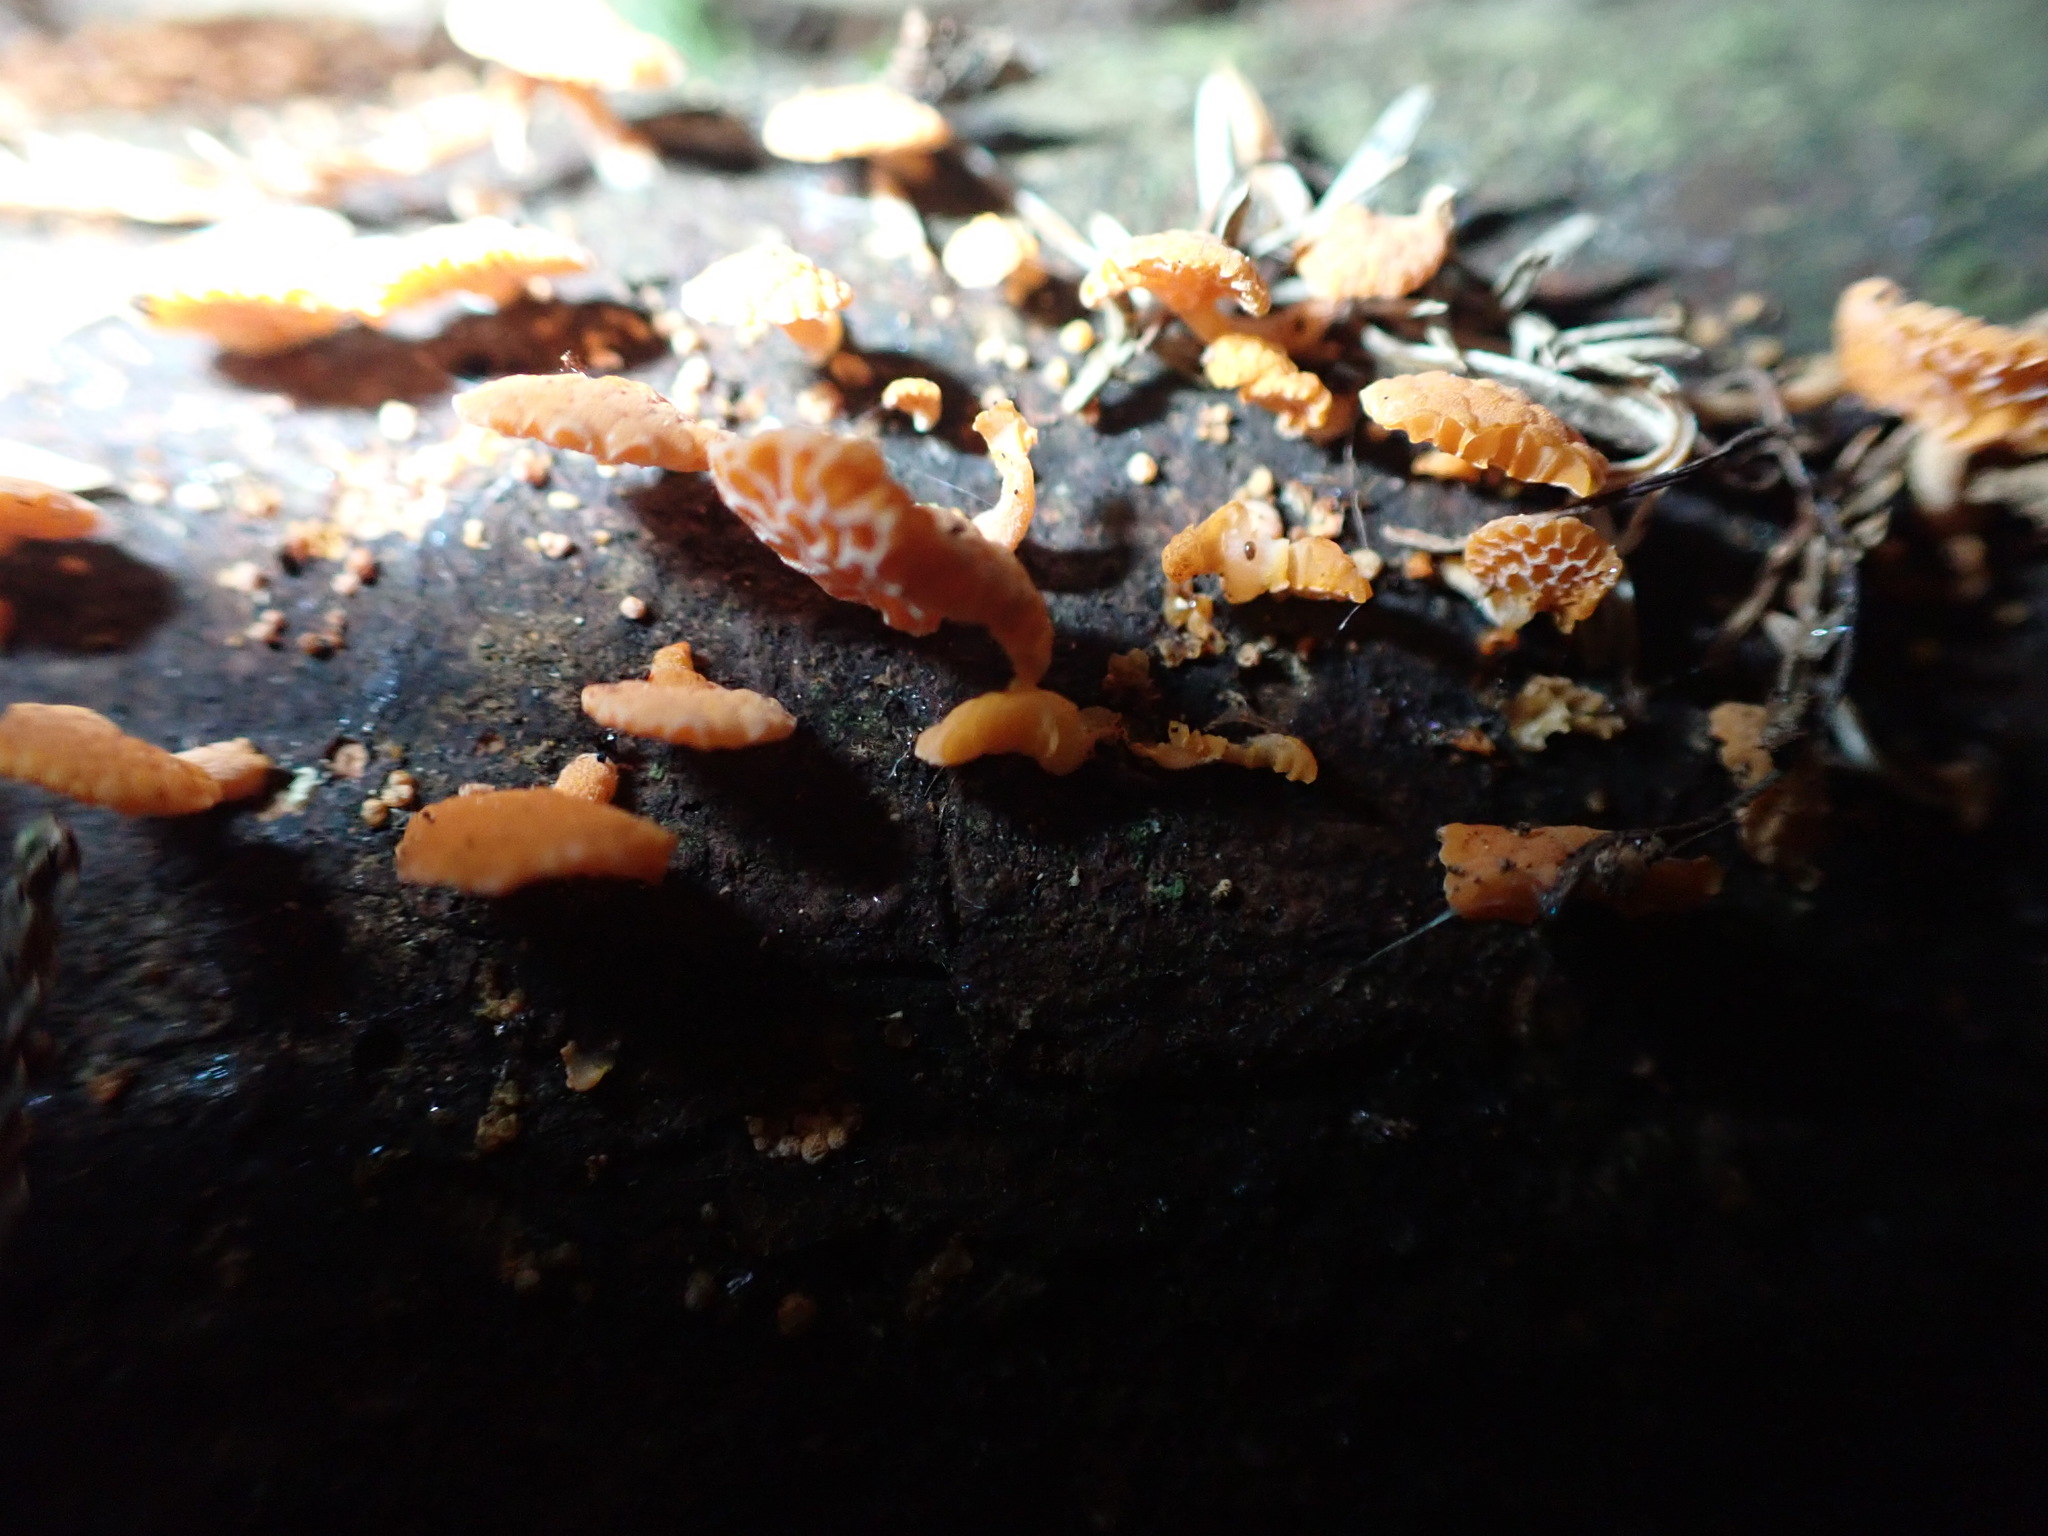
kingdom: Fungi
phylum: Basidiomycota
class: Agaricomycetes
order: Agaricales
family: Mycenaceae
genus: Favolaschia
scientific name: Favolaschia claudopus
